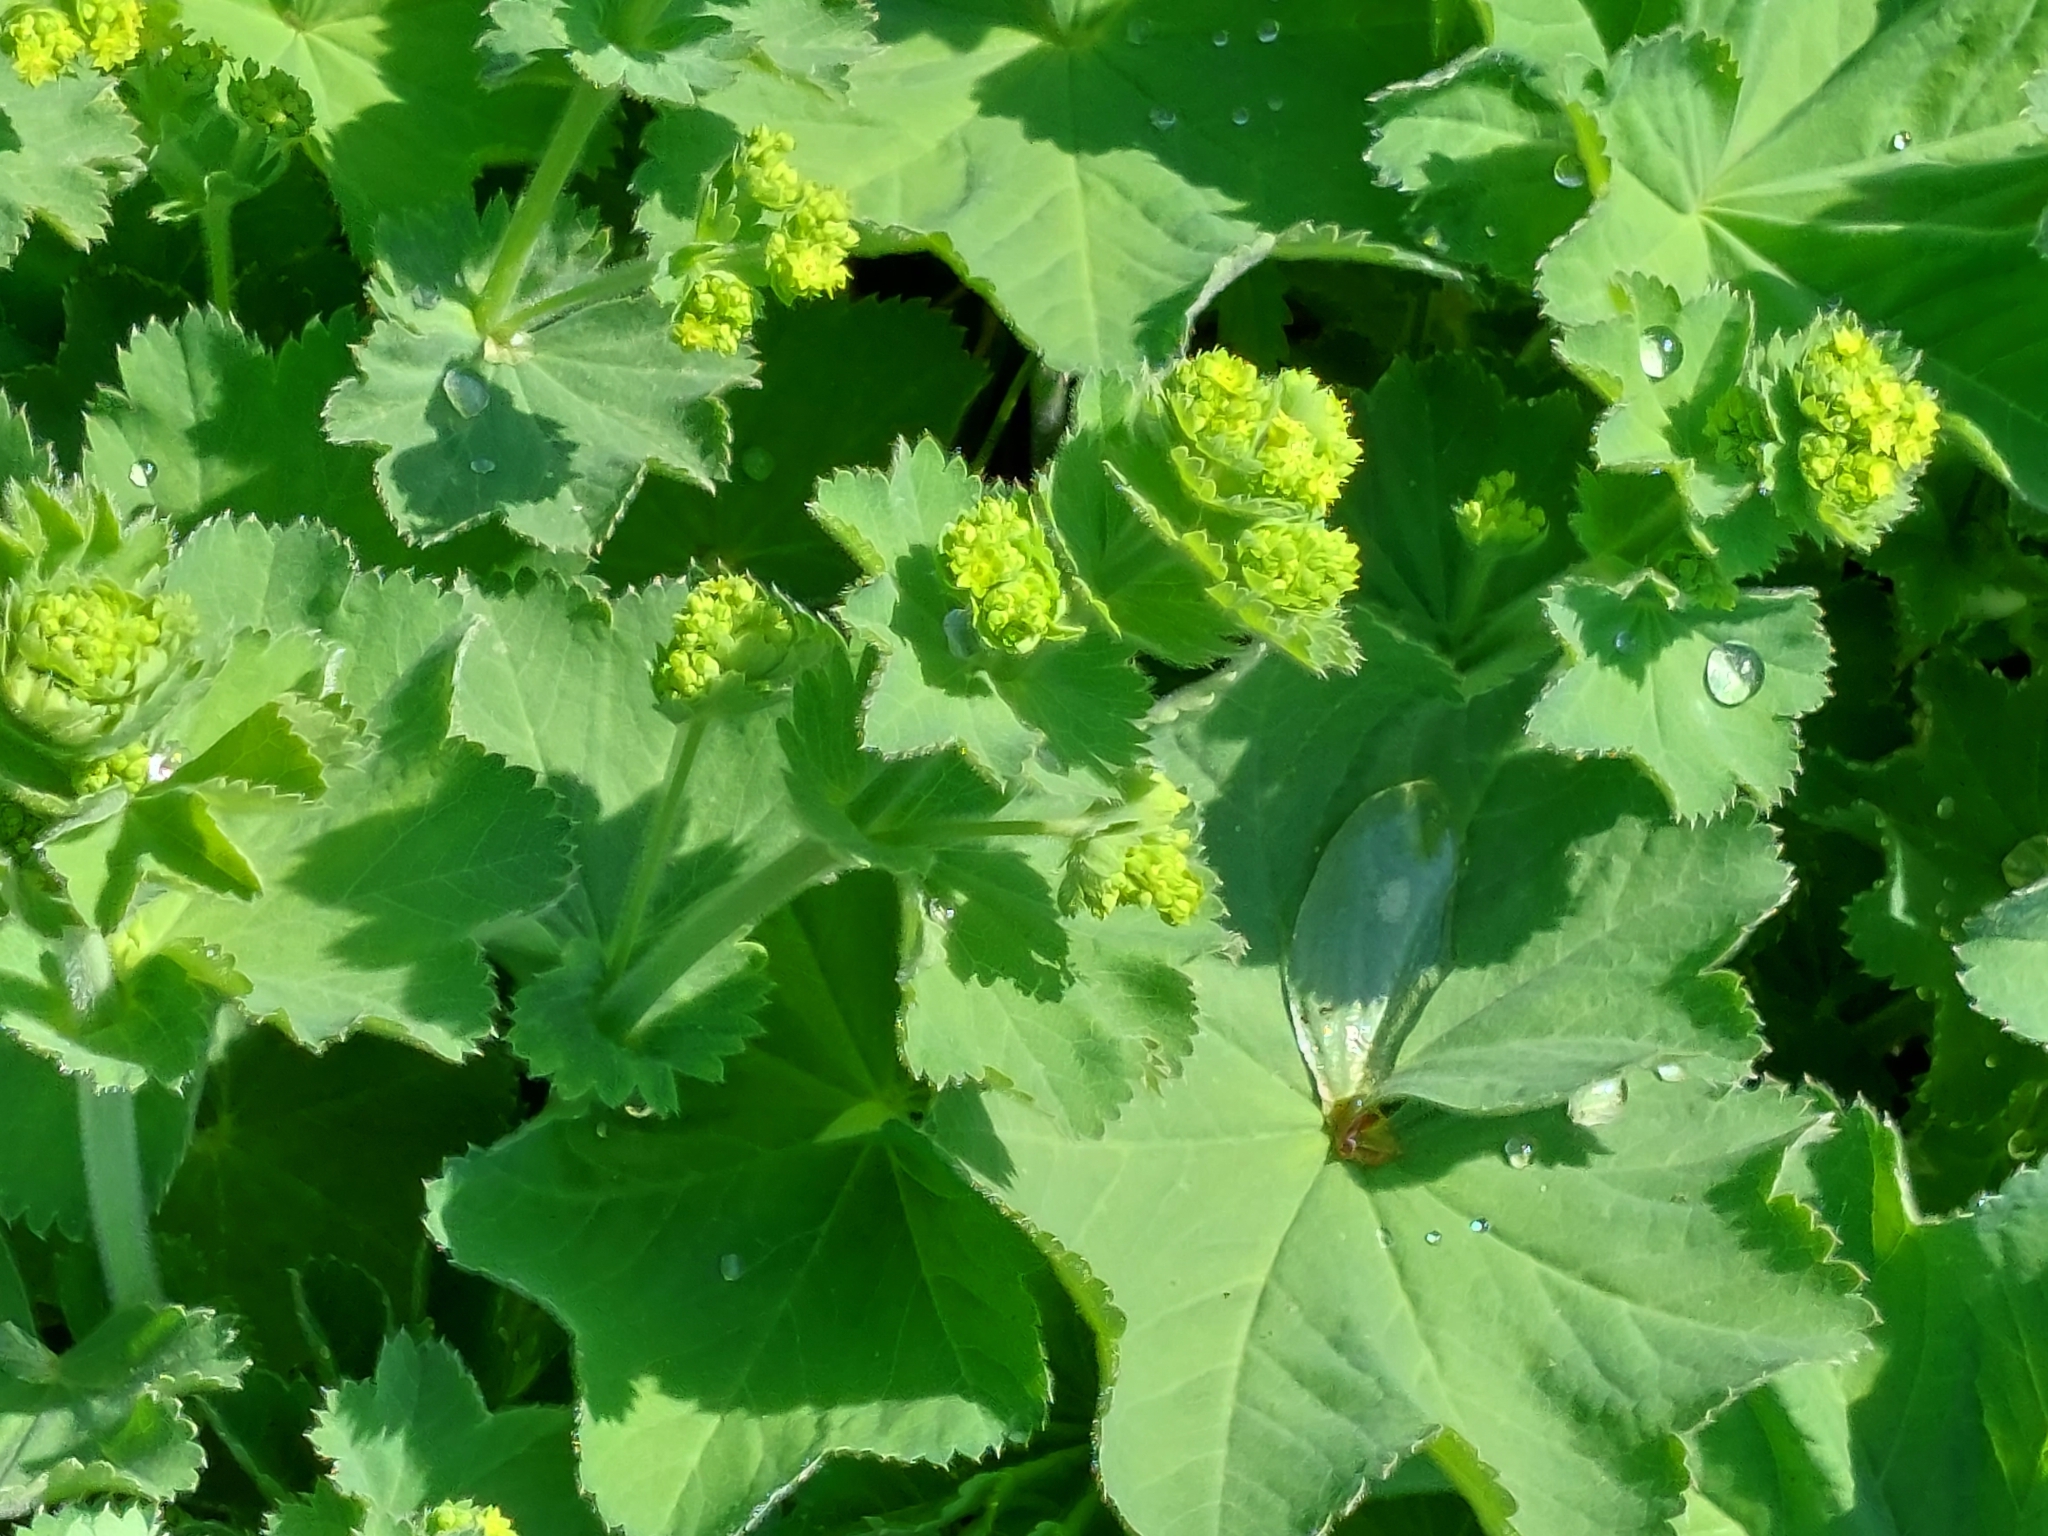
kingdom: Plantae
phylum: Tracheophyta
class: Magnoliopsida
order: Rosales
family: Rosaceae
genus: Alchemilla
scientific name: Alchemilla mollis
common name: Lady's-mantle
